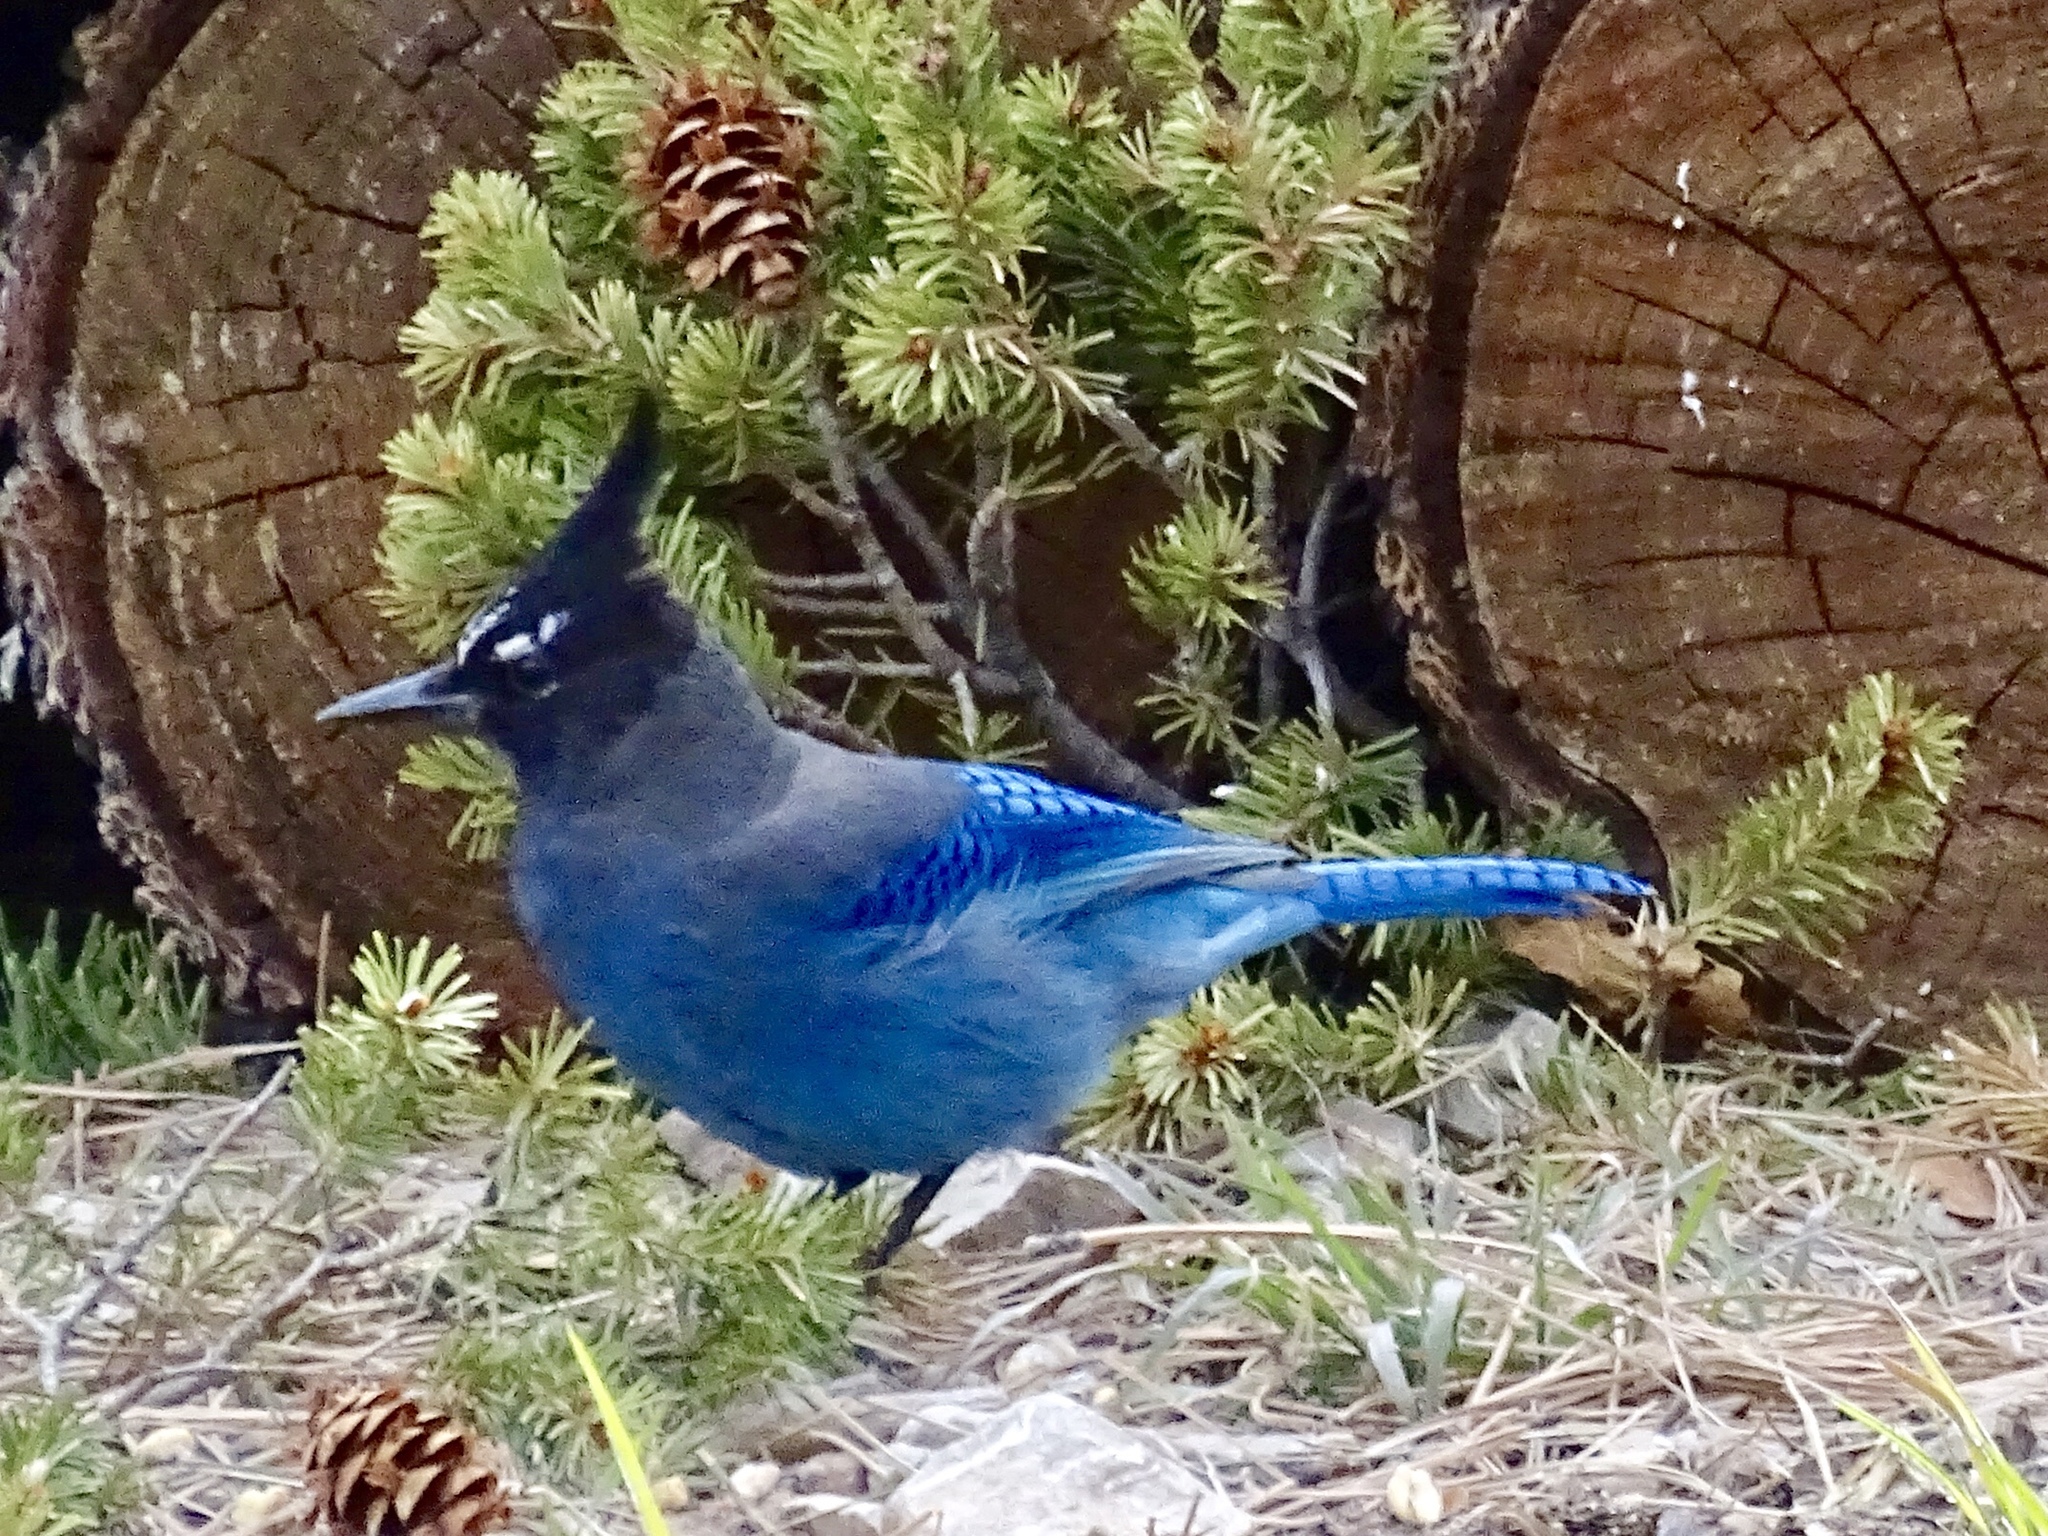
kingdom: Animalia
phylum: Chordata
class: Aves
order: Passeriformes
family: Corvidae
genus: Cyanocitta
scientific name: Cyanocitta stelleri
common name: Steller's jay
